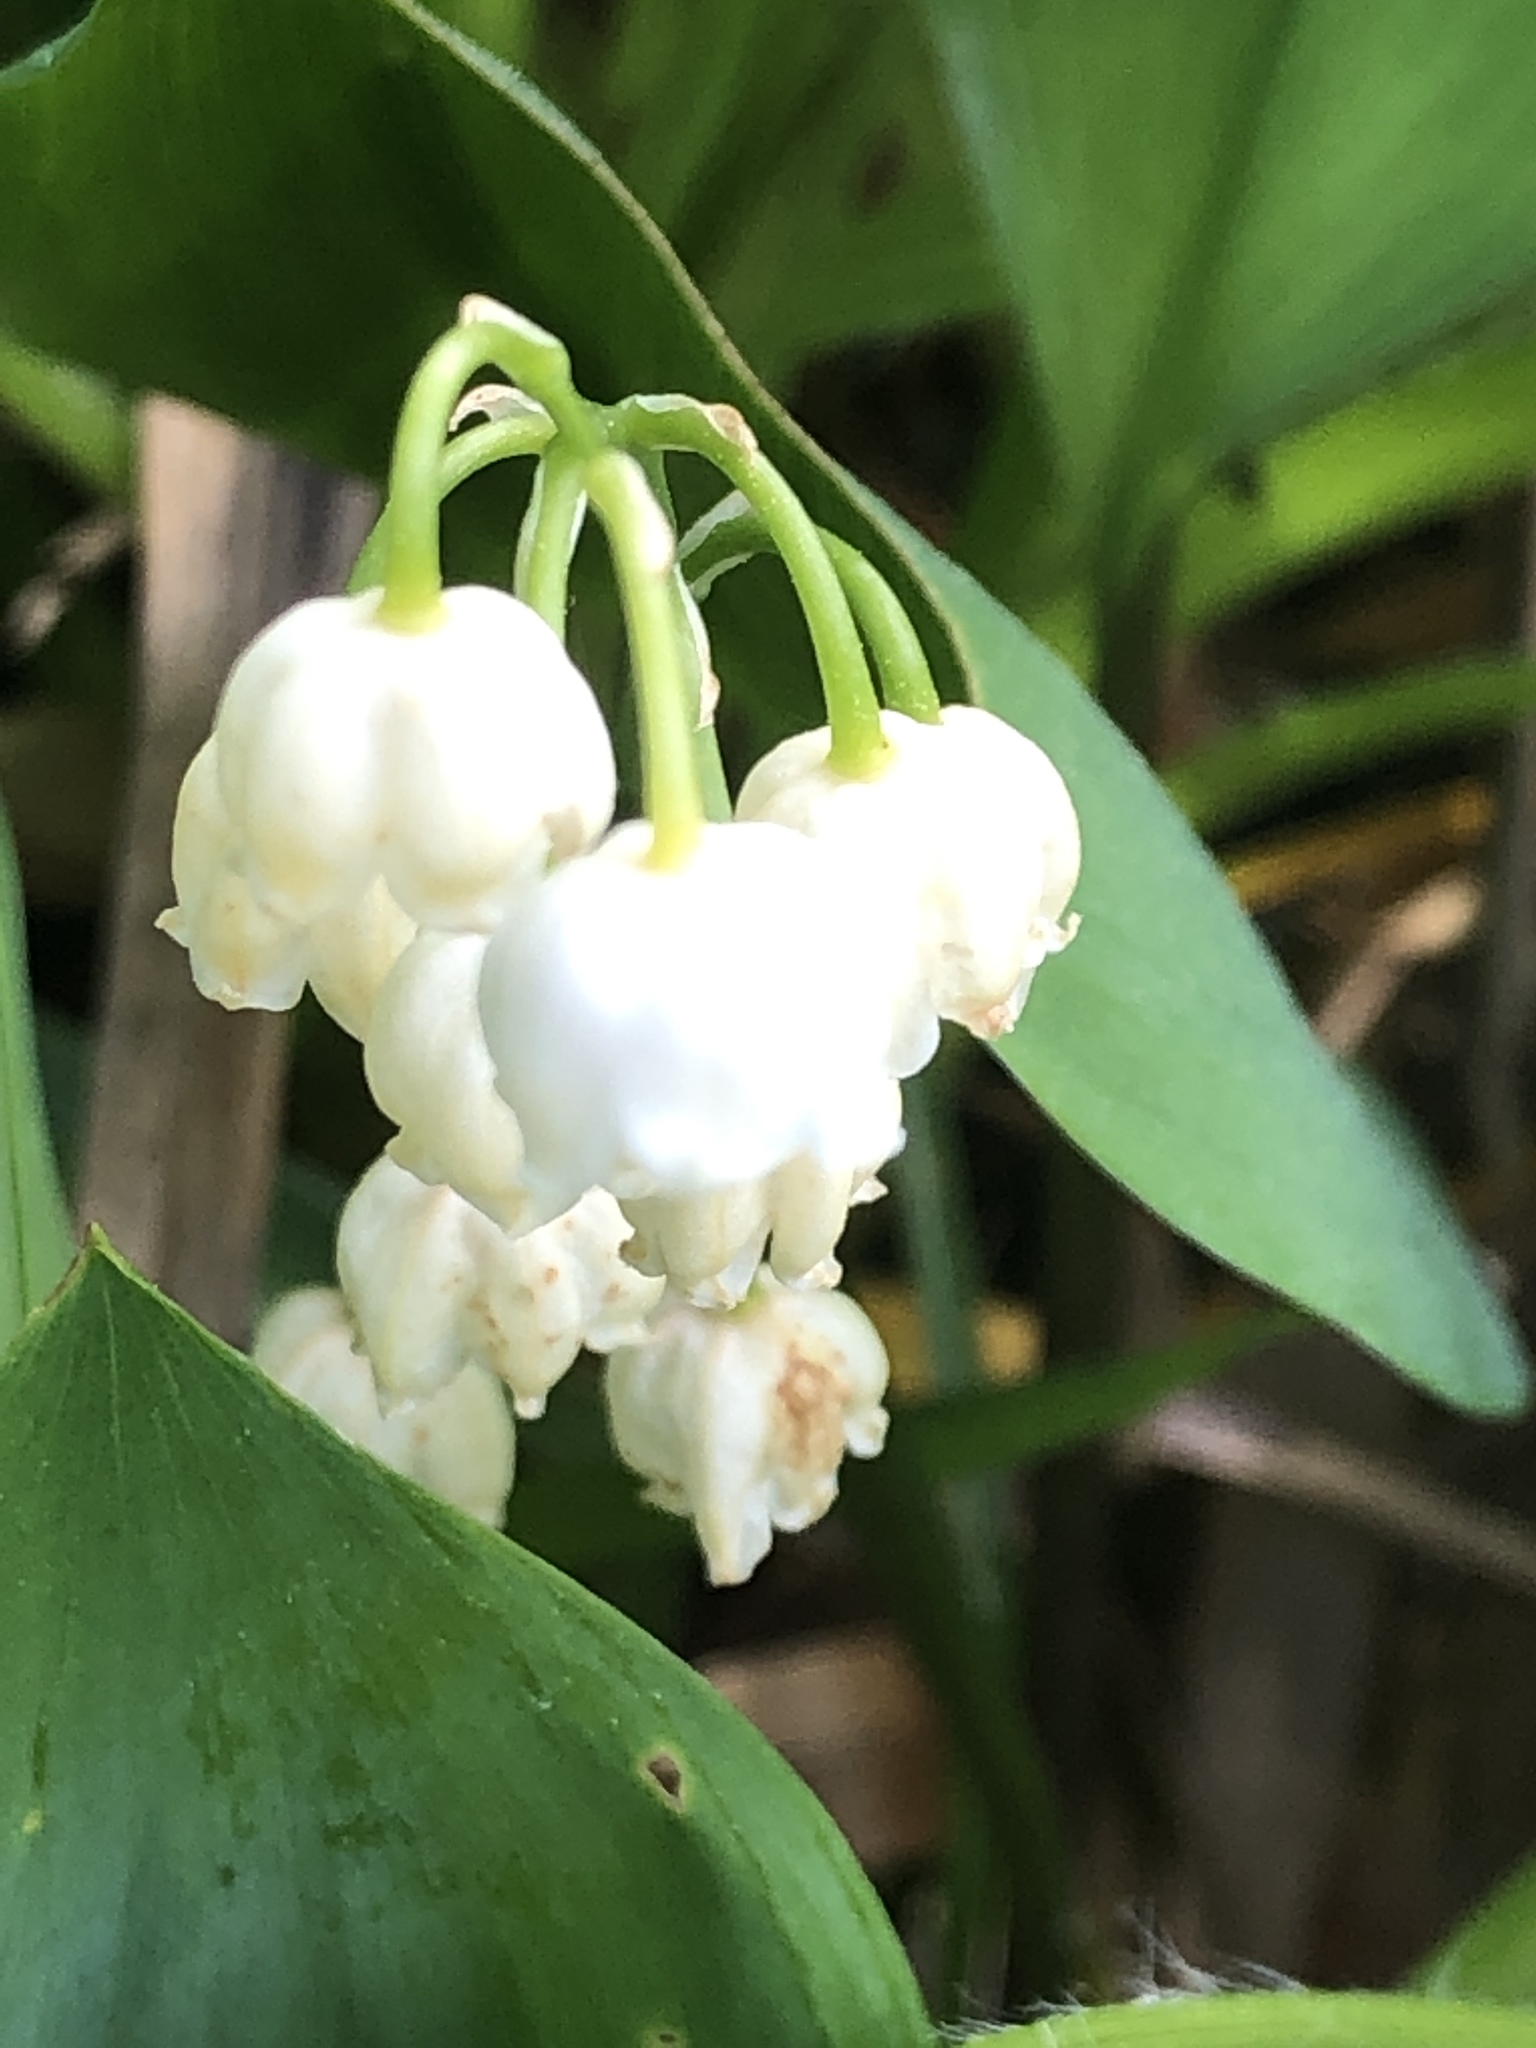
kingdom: Plantae
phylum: Tracheophyta
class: Liliopsida
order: Asparagales
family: Asparagaceae
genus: Convallaria
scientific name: Convallaria majalis
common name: Lily-of-the-valley
